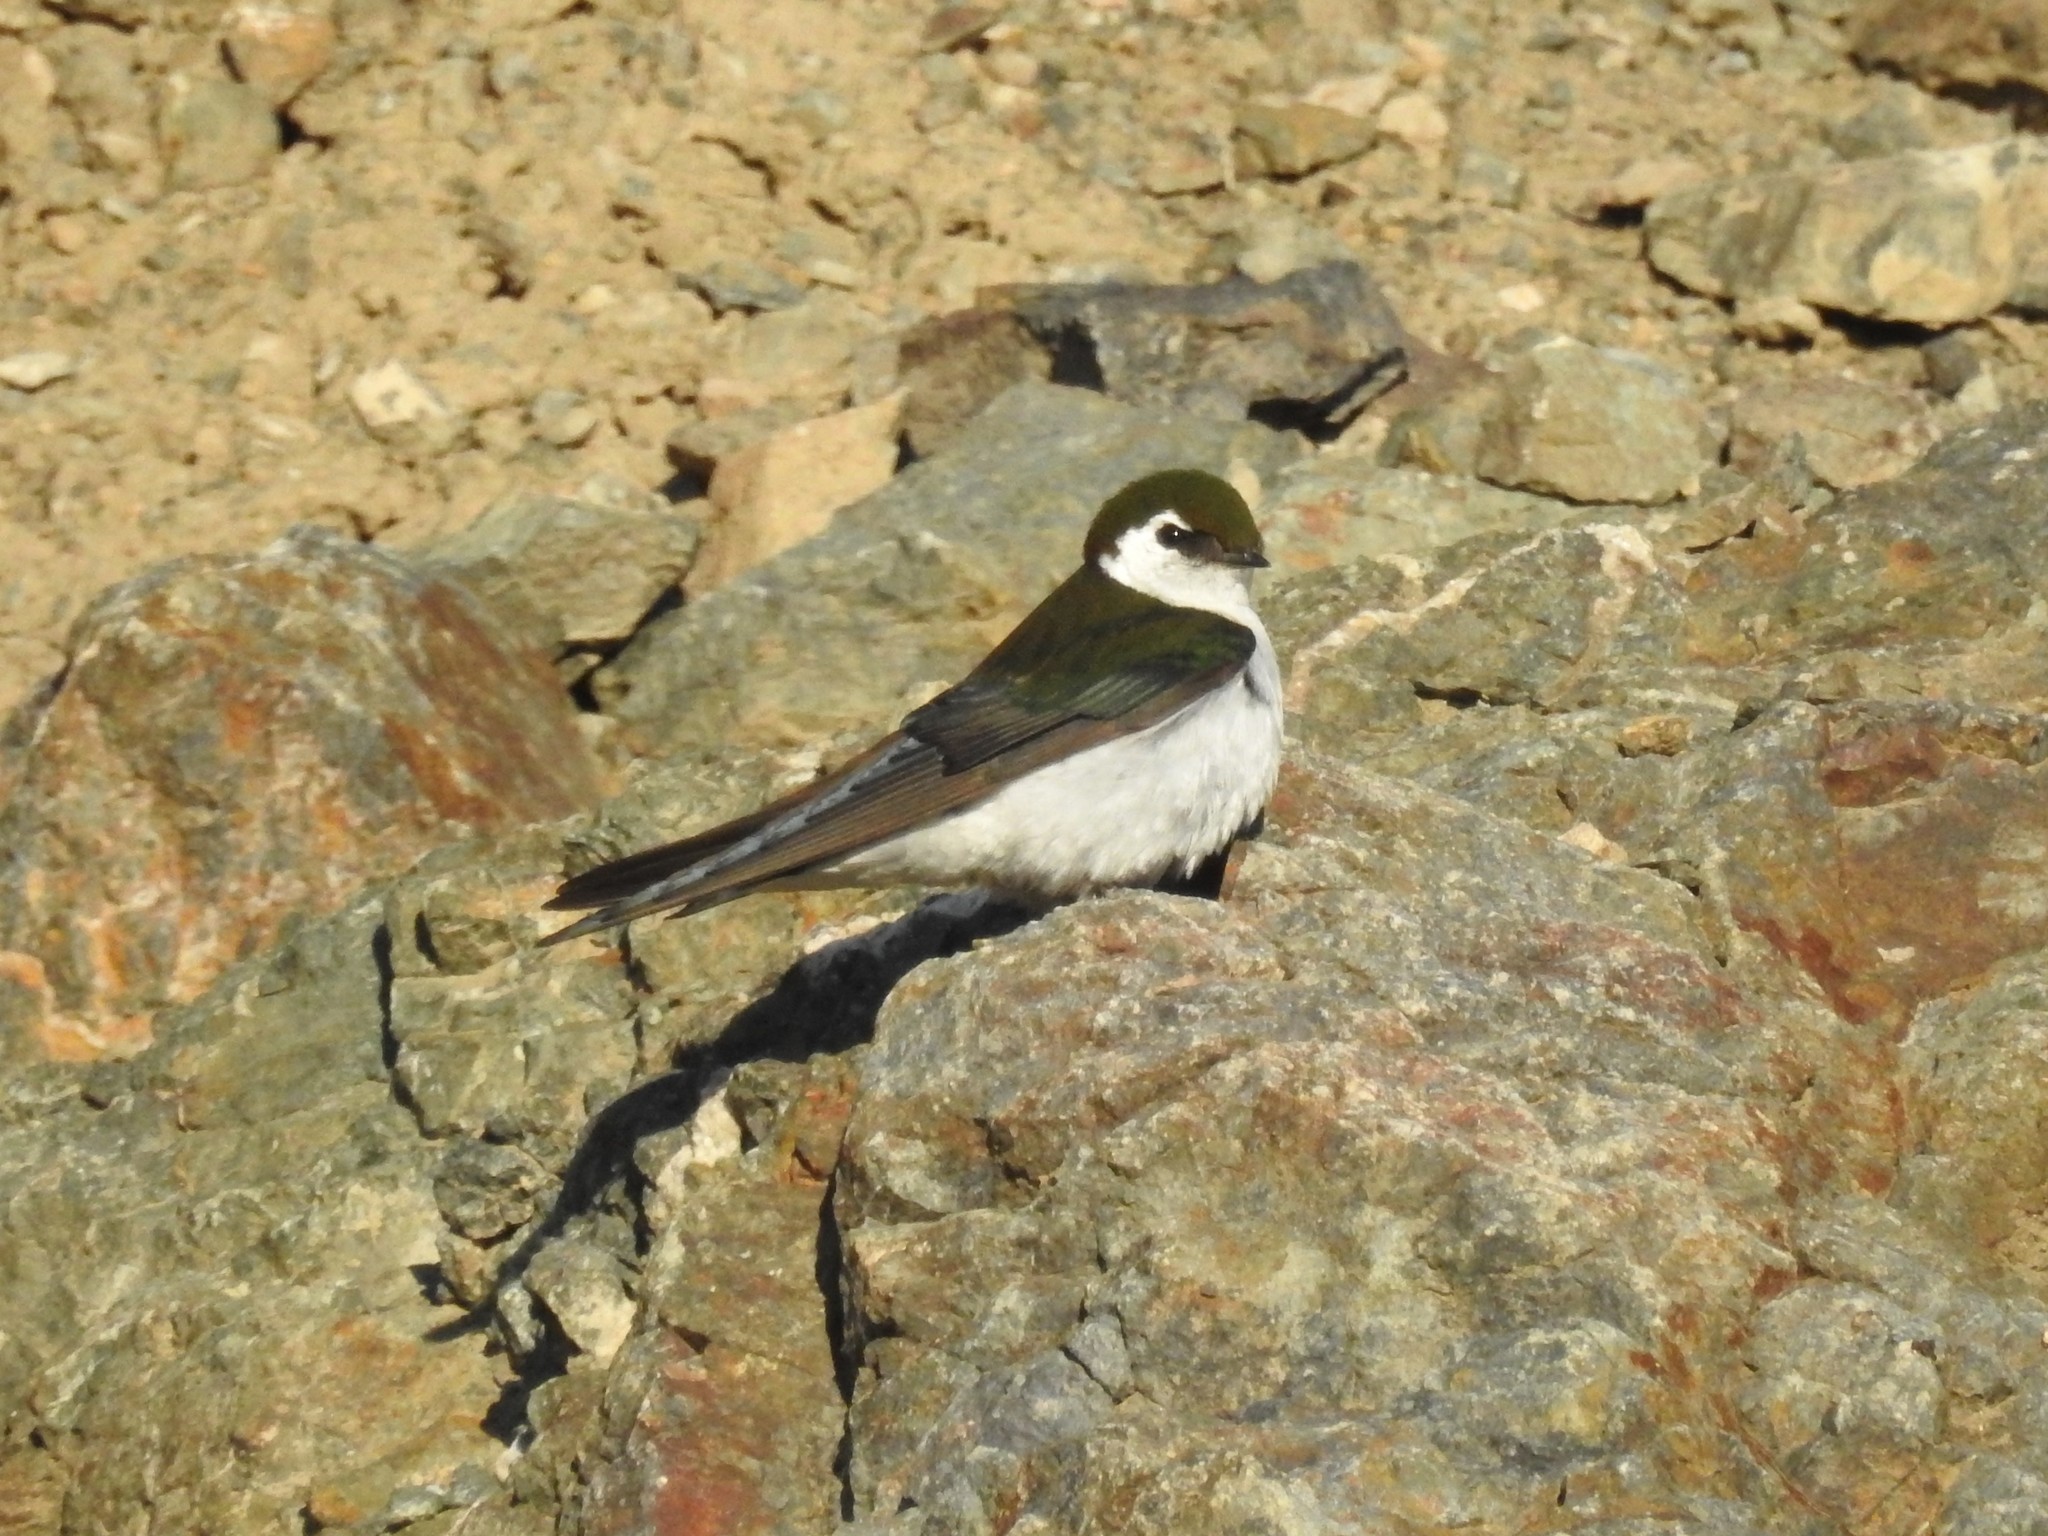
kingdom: Animalia
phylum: Chordata
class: Aves
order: Passeriformes
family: Hirundinidae
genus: Tachycineta
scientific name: Tachycineta thalassina
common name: Violet-green swallow
